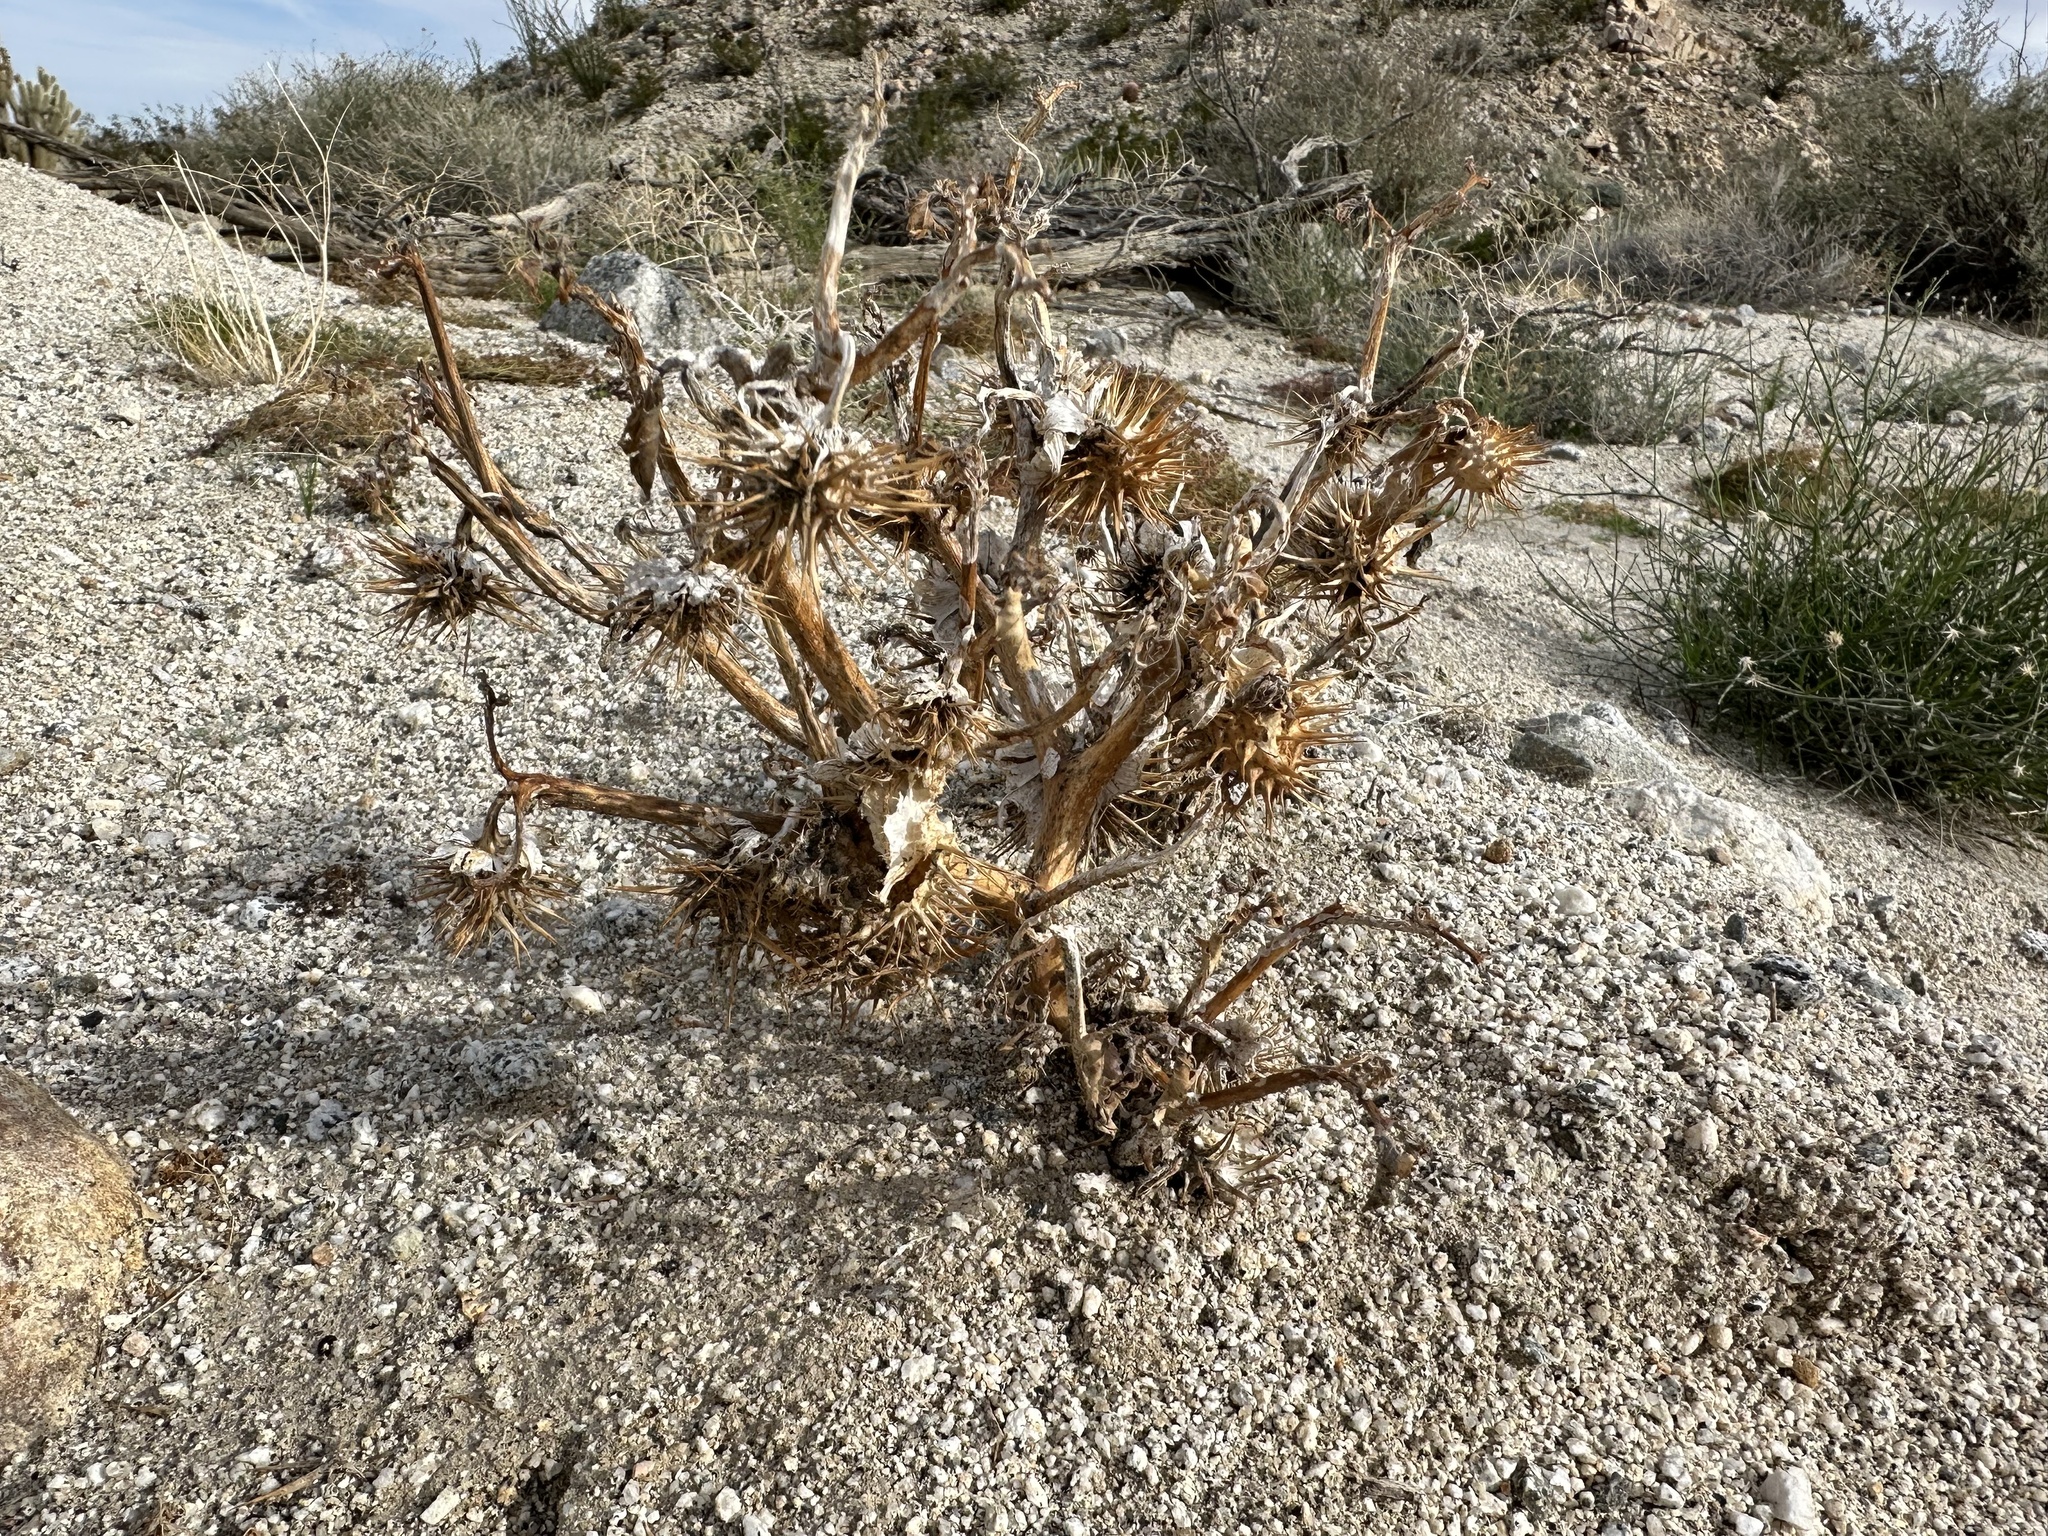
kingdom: Plantae
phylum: Tracheophyta
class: Magnoliopsida
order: Solanales
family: Solanaceae
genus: Datura
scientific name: Datura discolor
